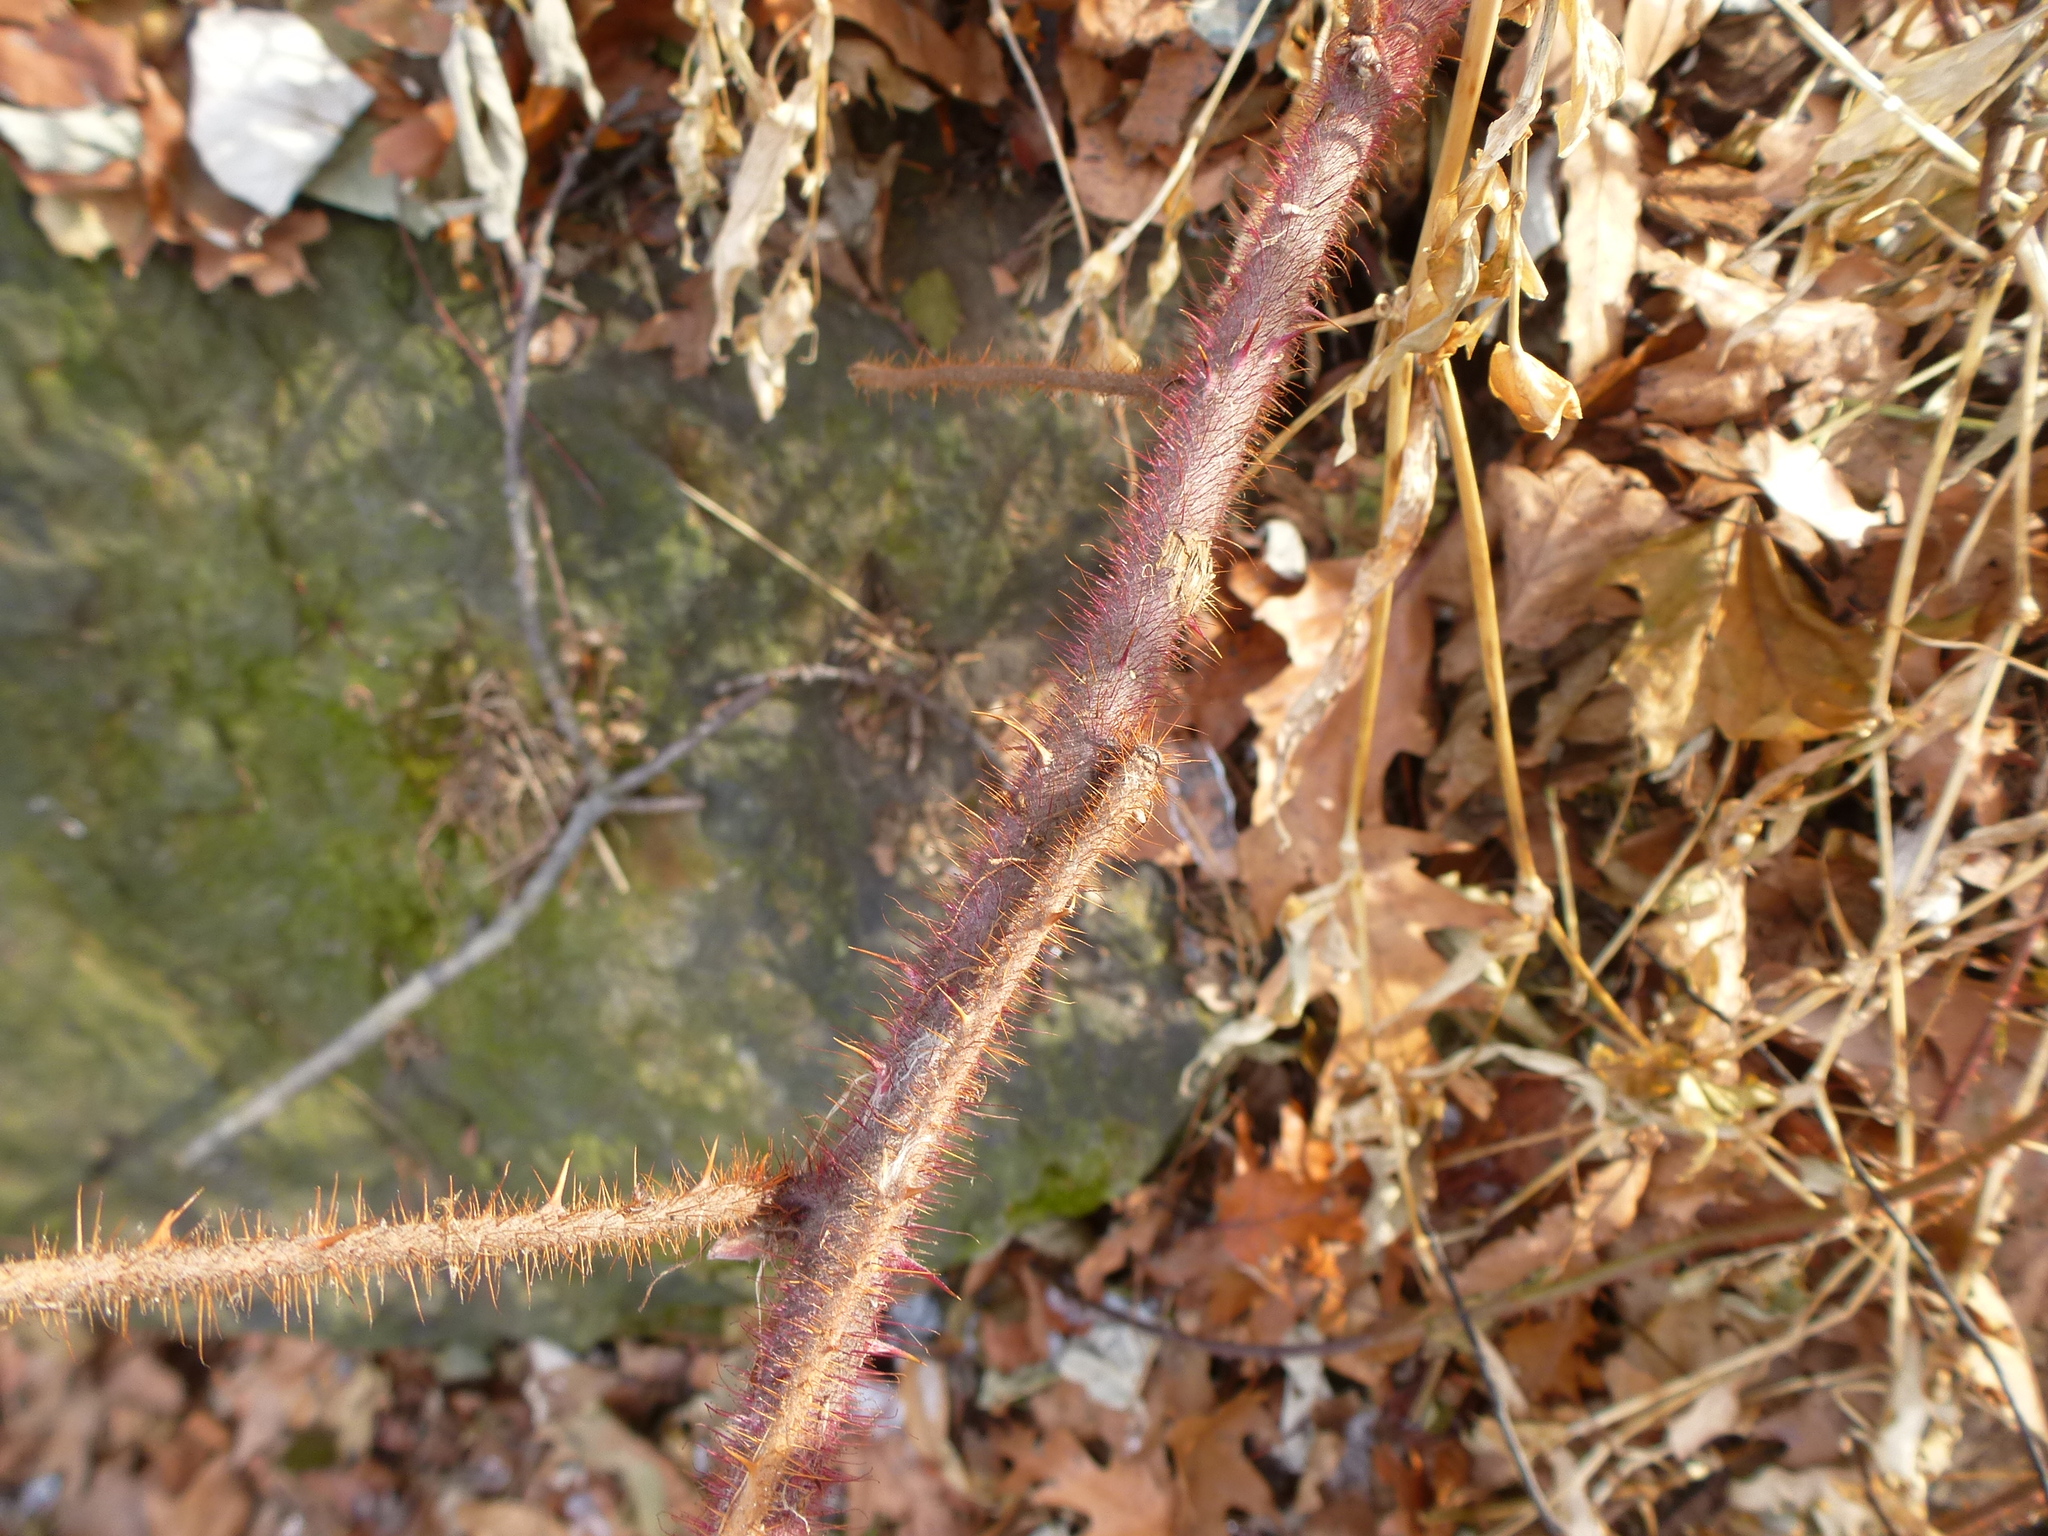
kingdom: Plantae
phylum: Tracheophyta
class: Magnoliopsida
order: Rosales
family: Rosaceae
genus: Rubus
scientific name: Rubus phoenicolasius
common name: Japanese wineberry
